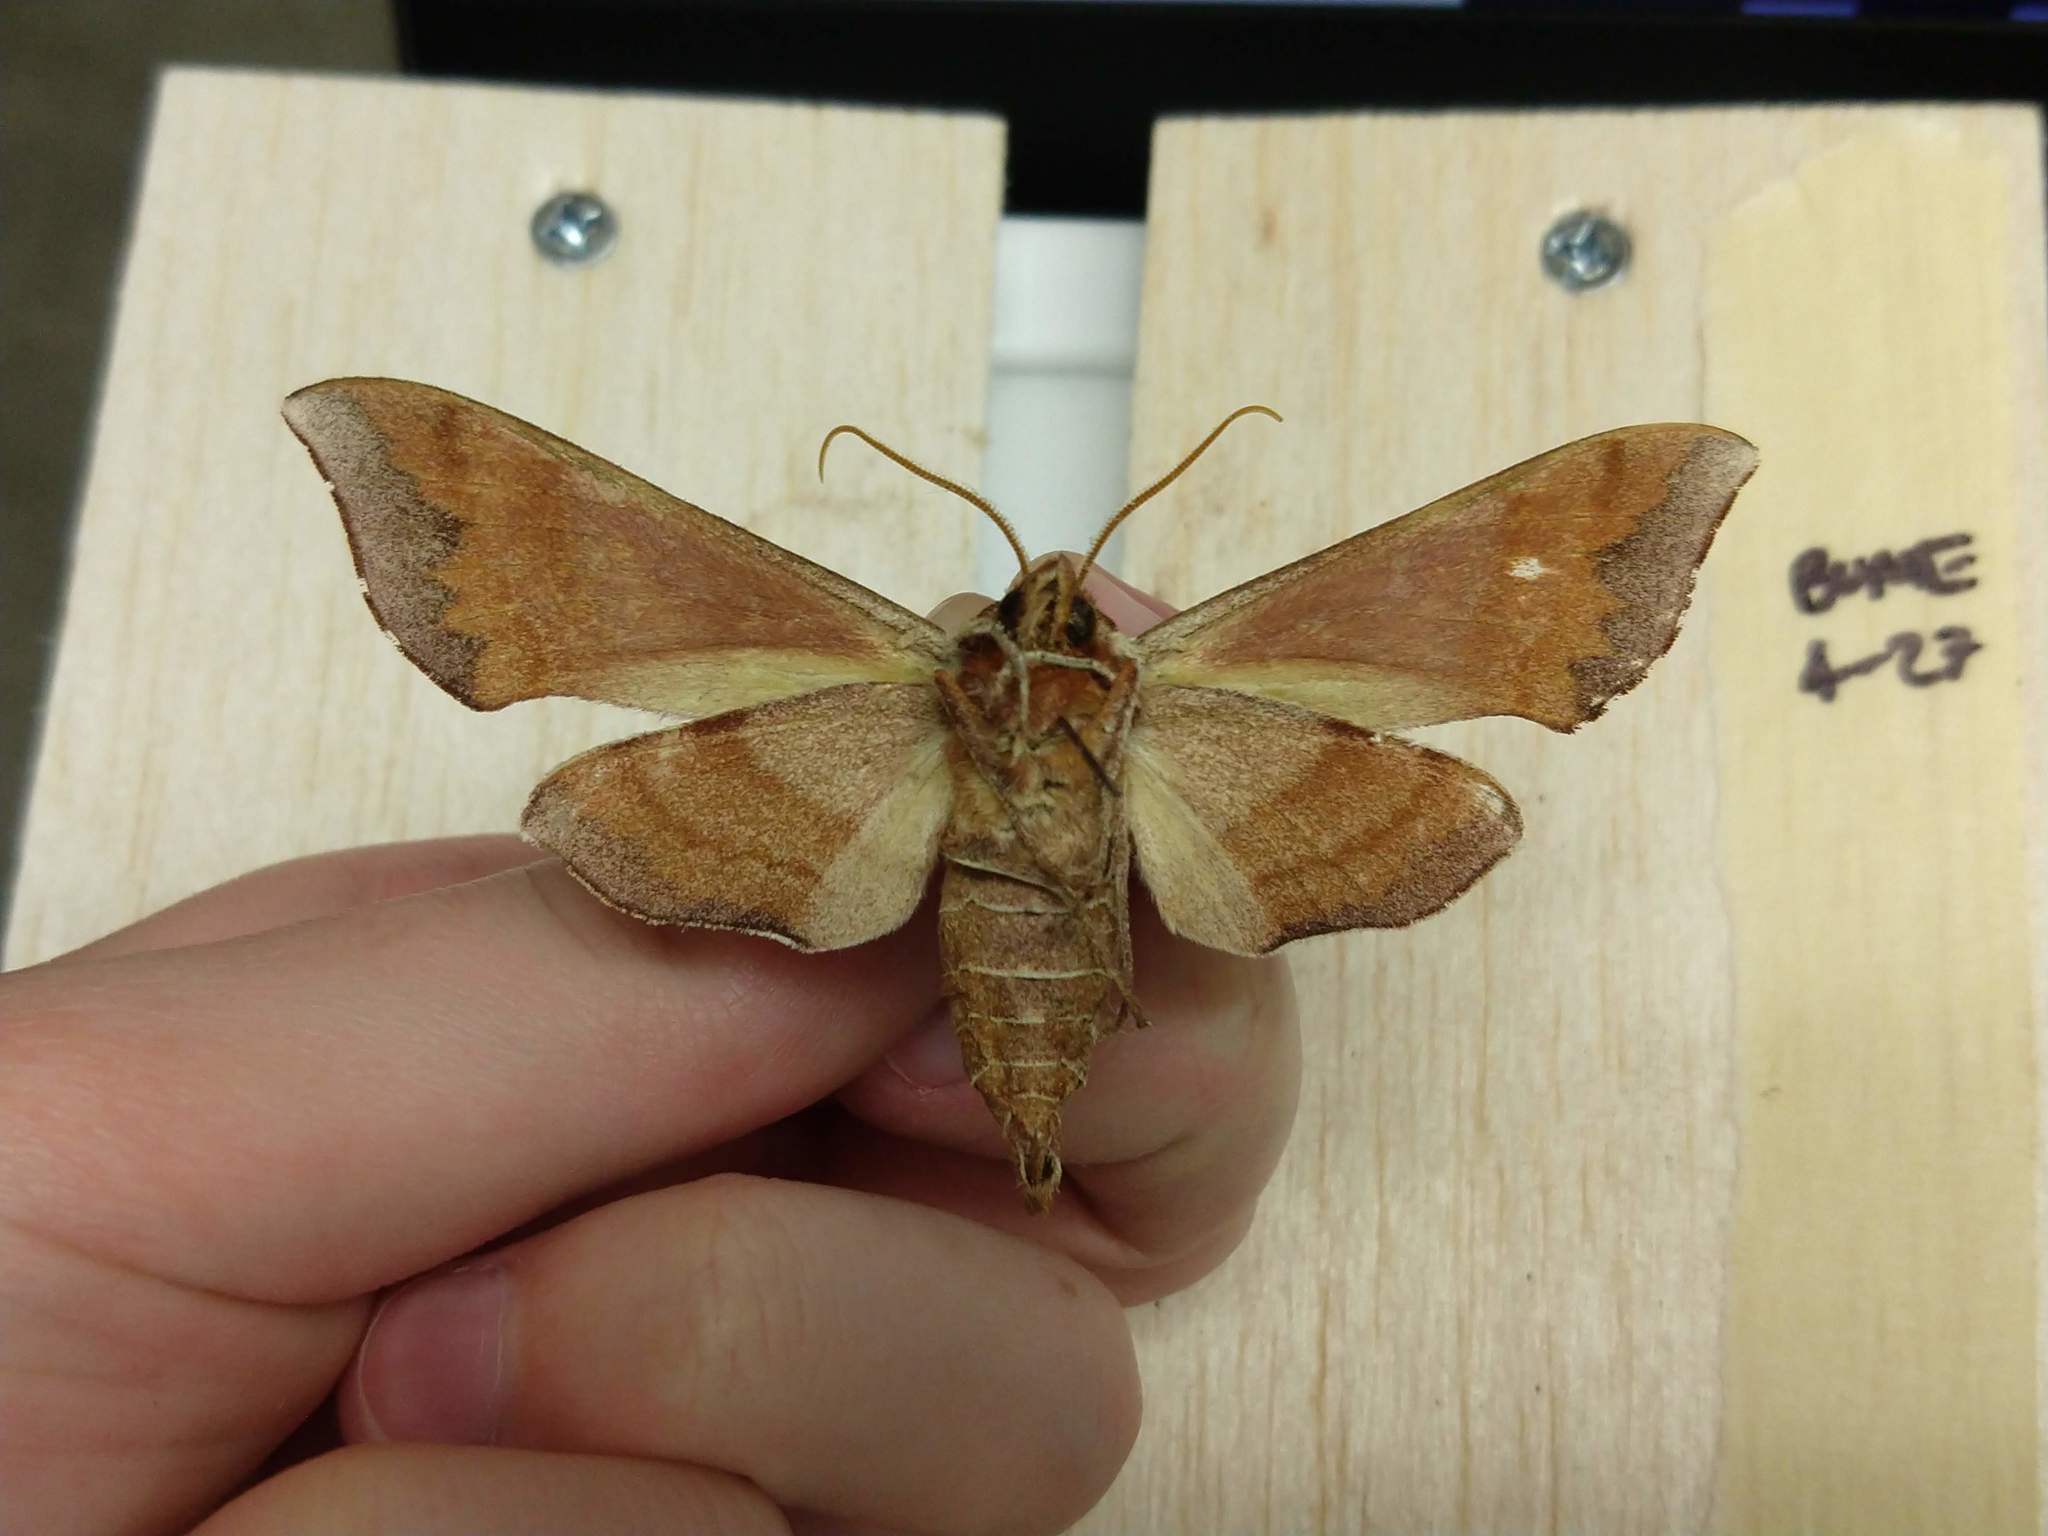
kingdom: Animalia
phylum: Arthropoda
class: Insecta
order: Lepidoptera
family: Sphingidae
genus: Darapsa
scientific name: Darapsa choerilus
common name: Azalea sphinx
